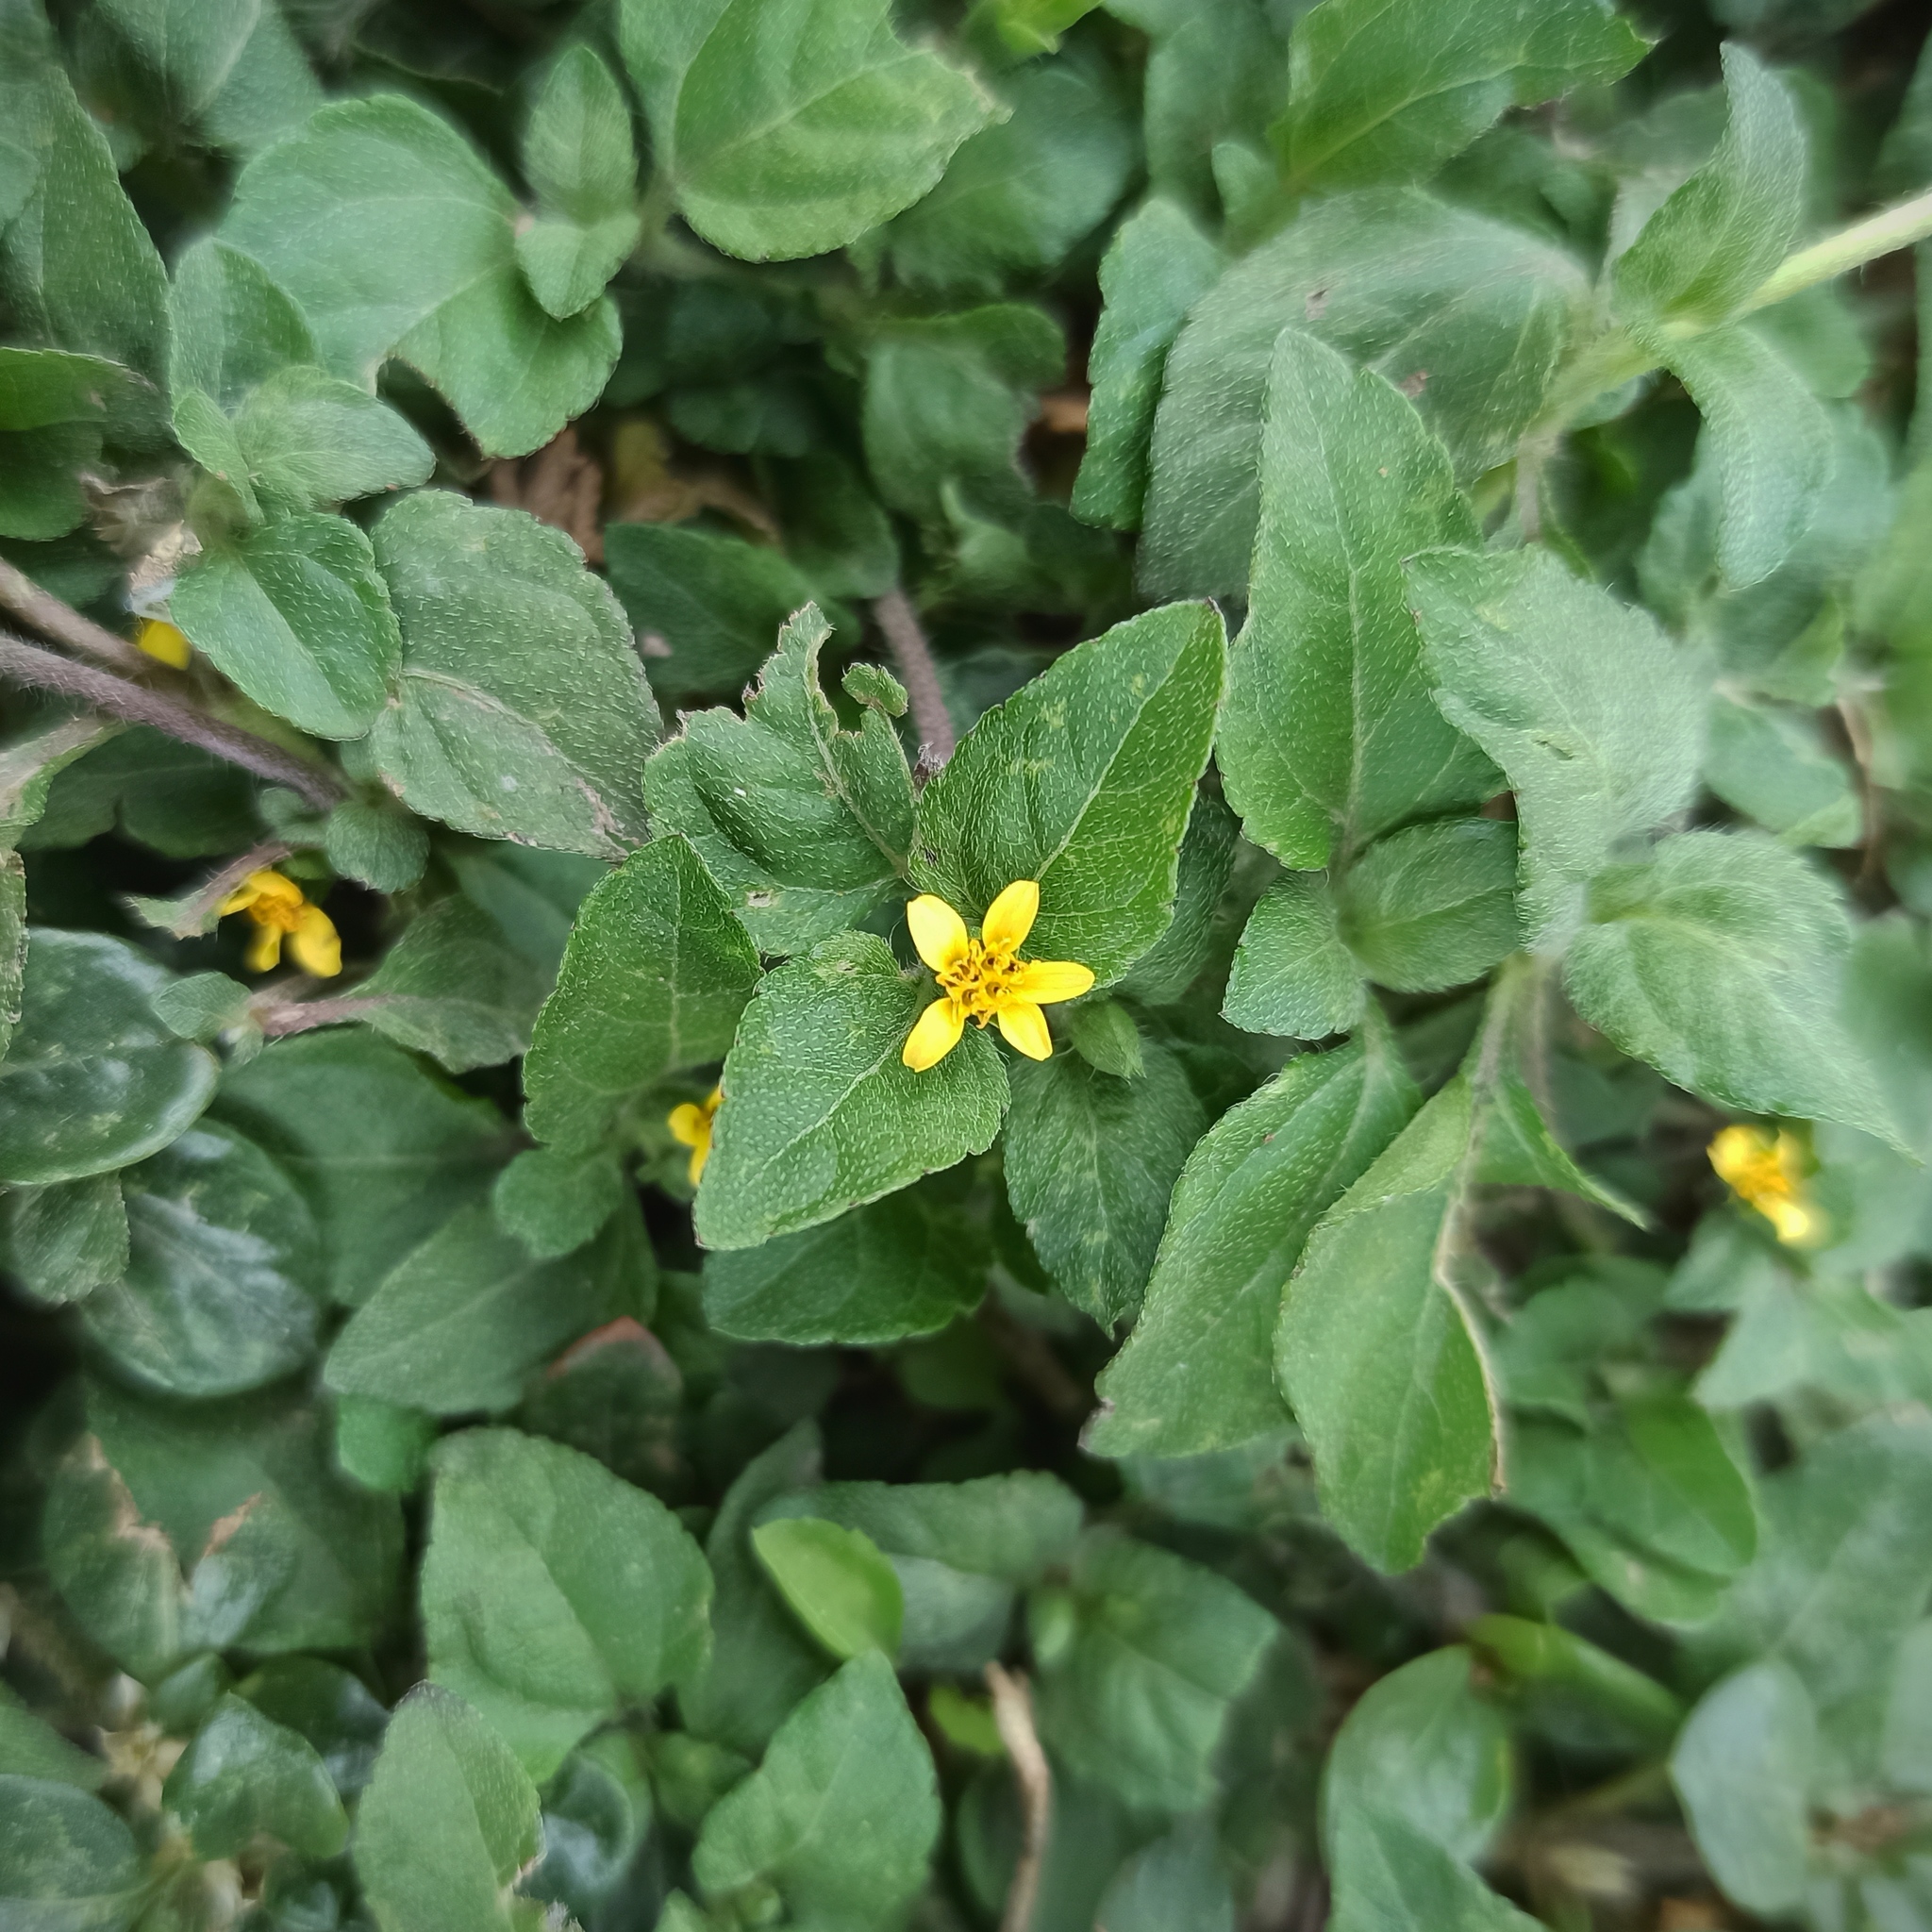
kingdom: Plantae
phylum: Tracheophyta
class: Magnoliopsida
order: Asterales
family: Asteraceae
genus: Calyptocarpus
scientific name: Calyptocarpus vialis
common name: Straggler daisy
